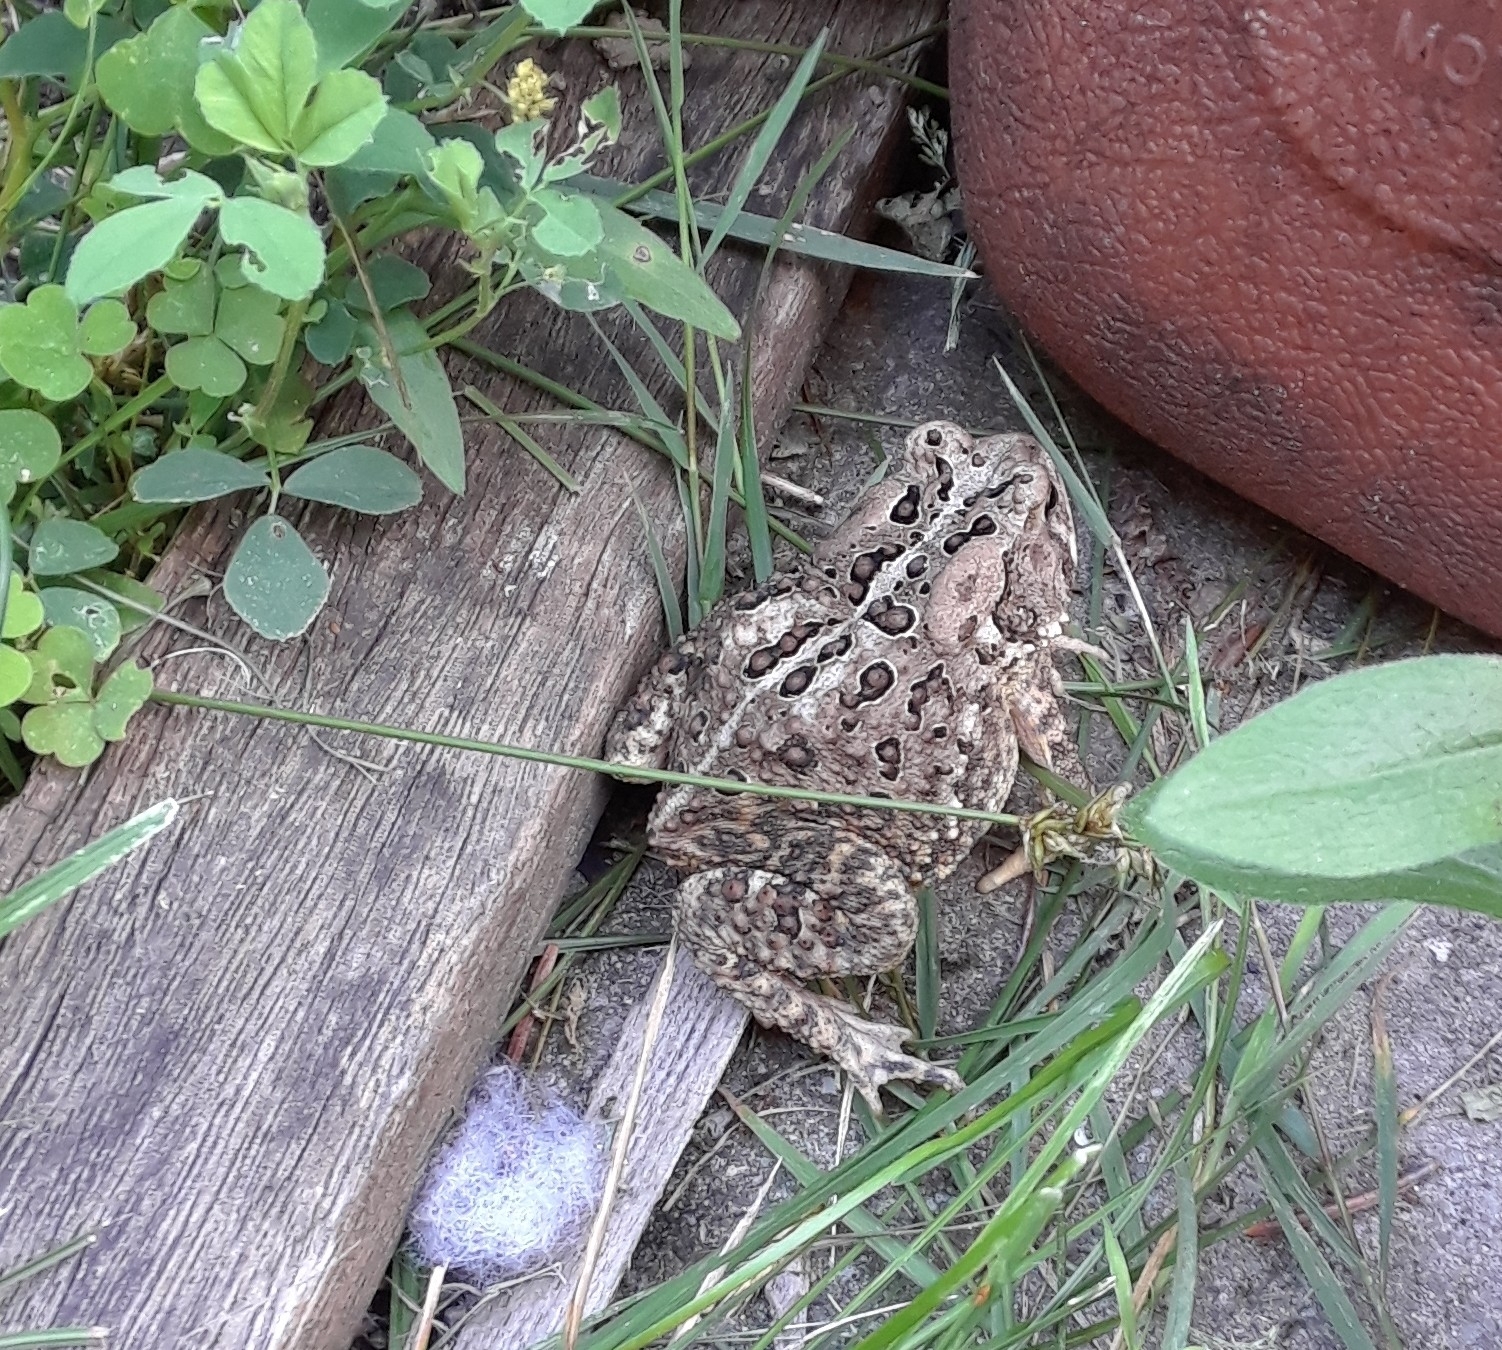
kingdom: Animalia
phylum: Chordata
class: Amphibia
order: Anura
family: Bufonidae
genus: Anaxyrus
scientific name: Anaxyrus americanus
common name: American toad
